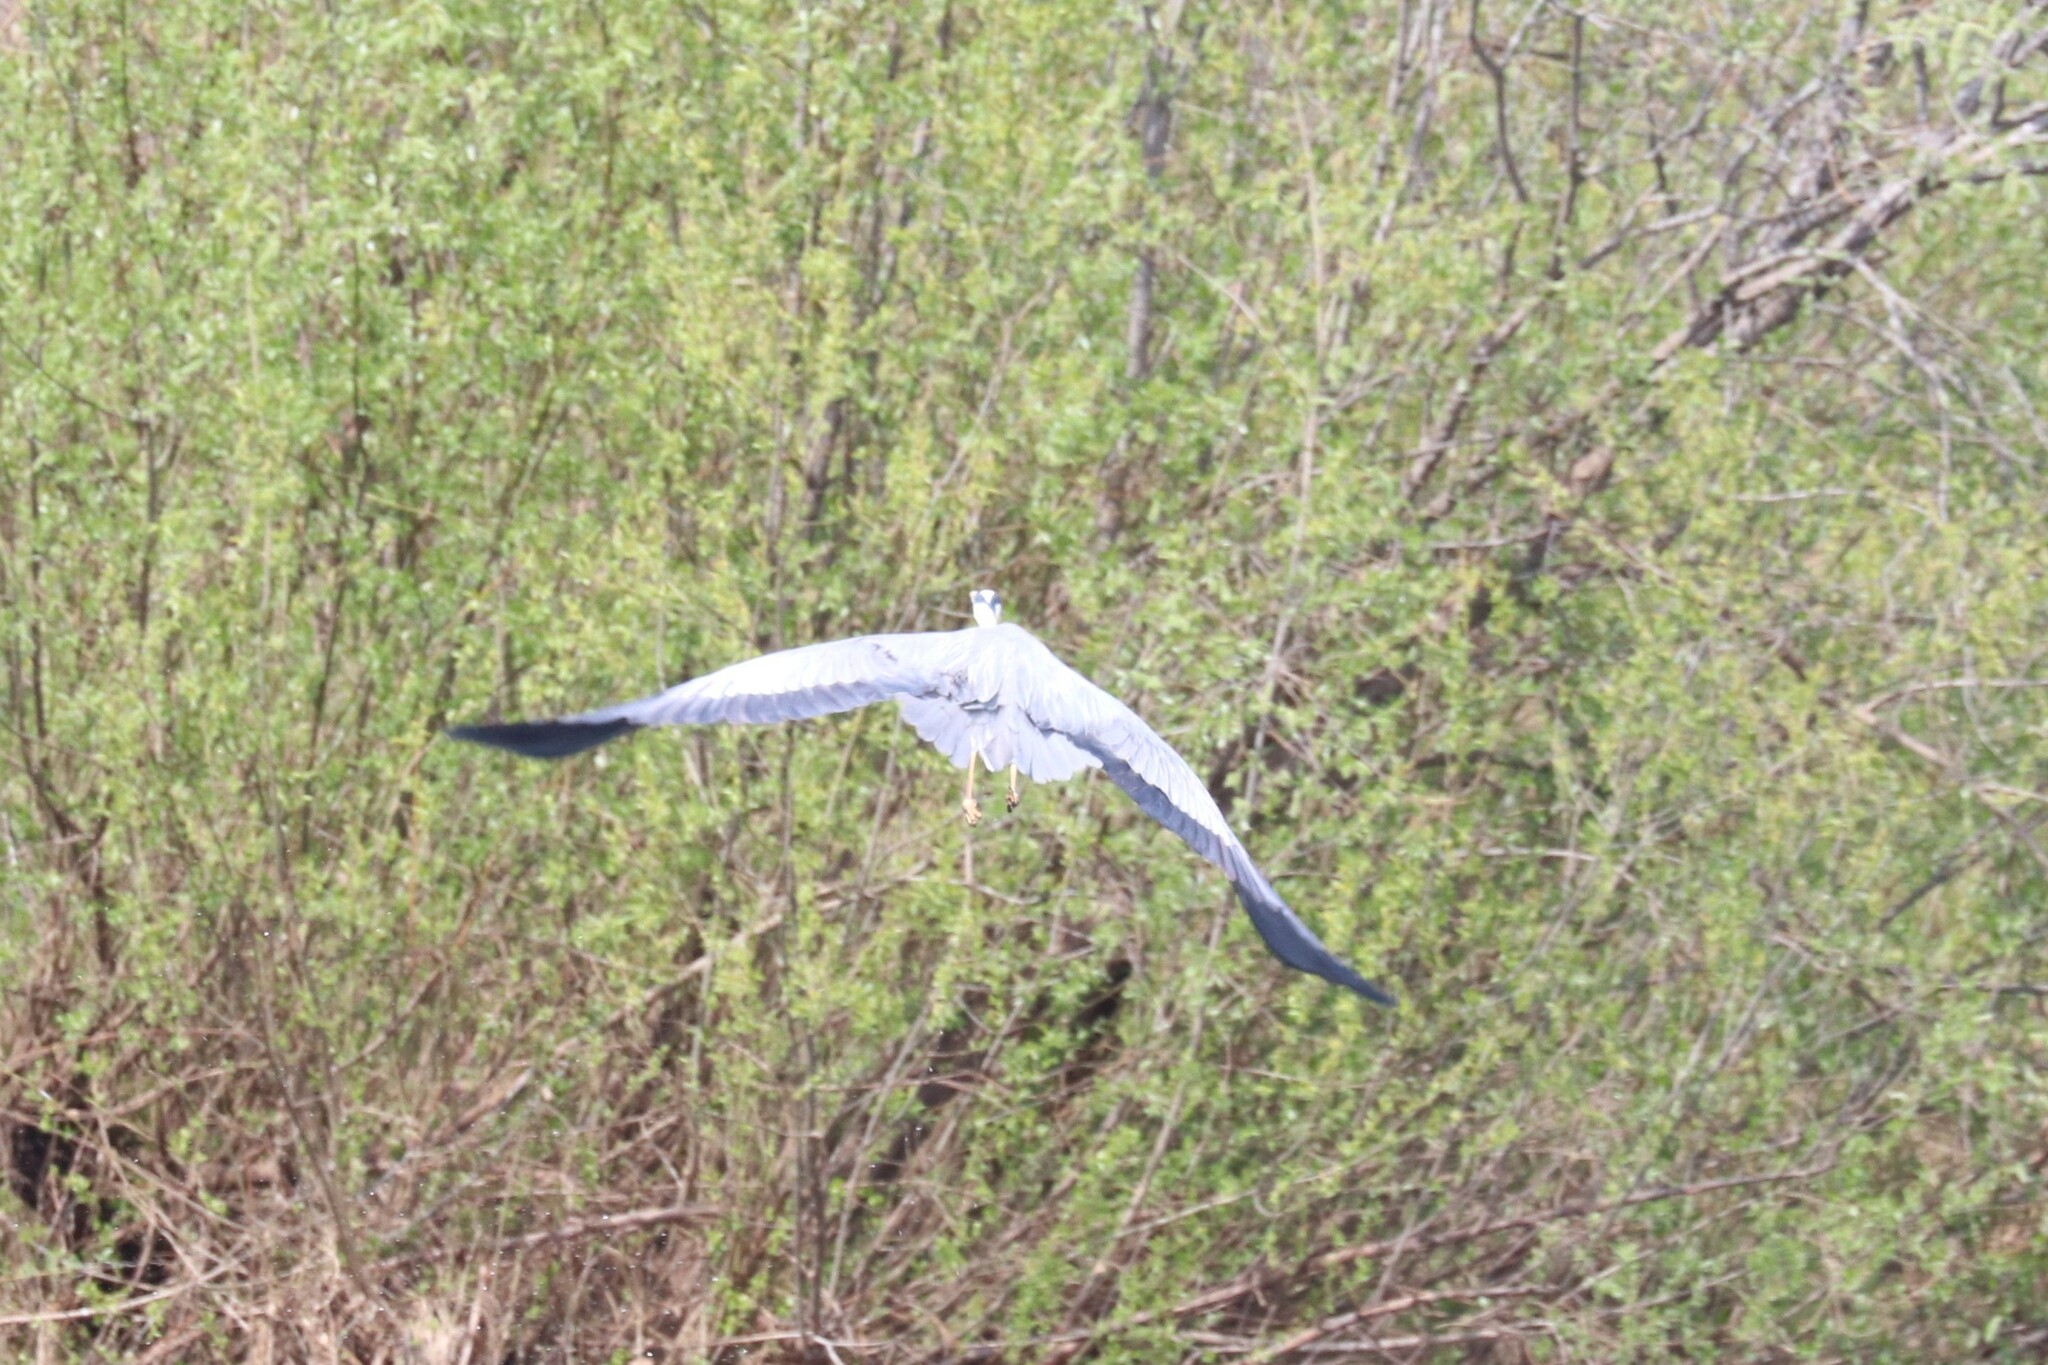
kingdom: Animalia
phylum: Chordata
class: Aves
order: Pelecaniformes
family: Ardeidae
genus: Ardea
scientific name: Ardea cinerea
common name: Grey heron
